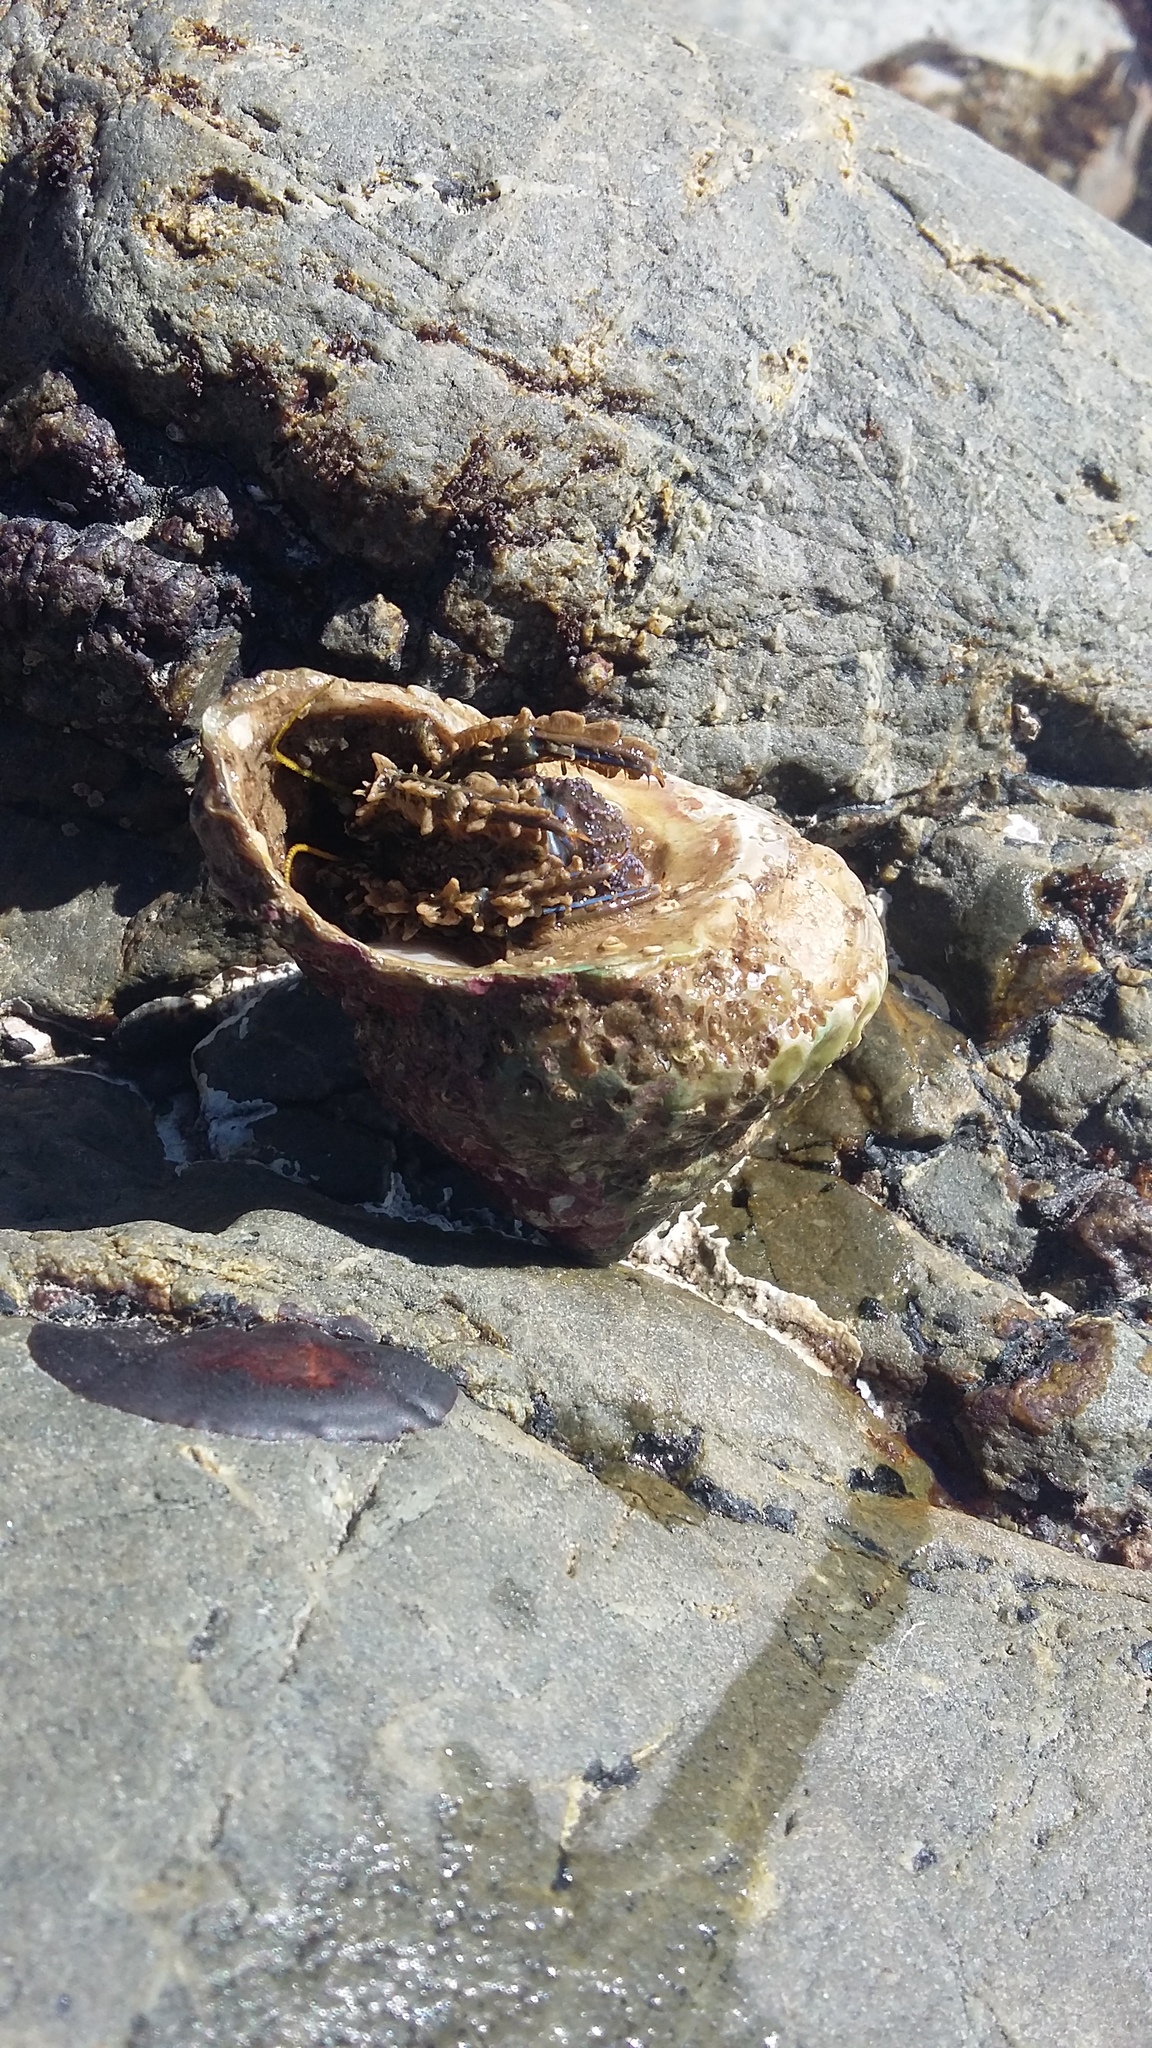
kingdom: Animalia
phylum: Arthropoda
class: Malacostraca
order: Decapoda
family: Paguridae
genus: Pagurus
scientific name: Pagurus novizealandiae
